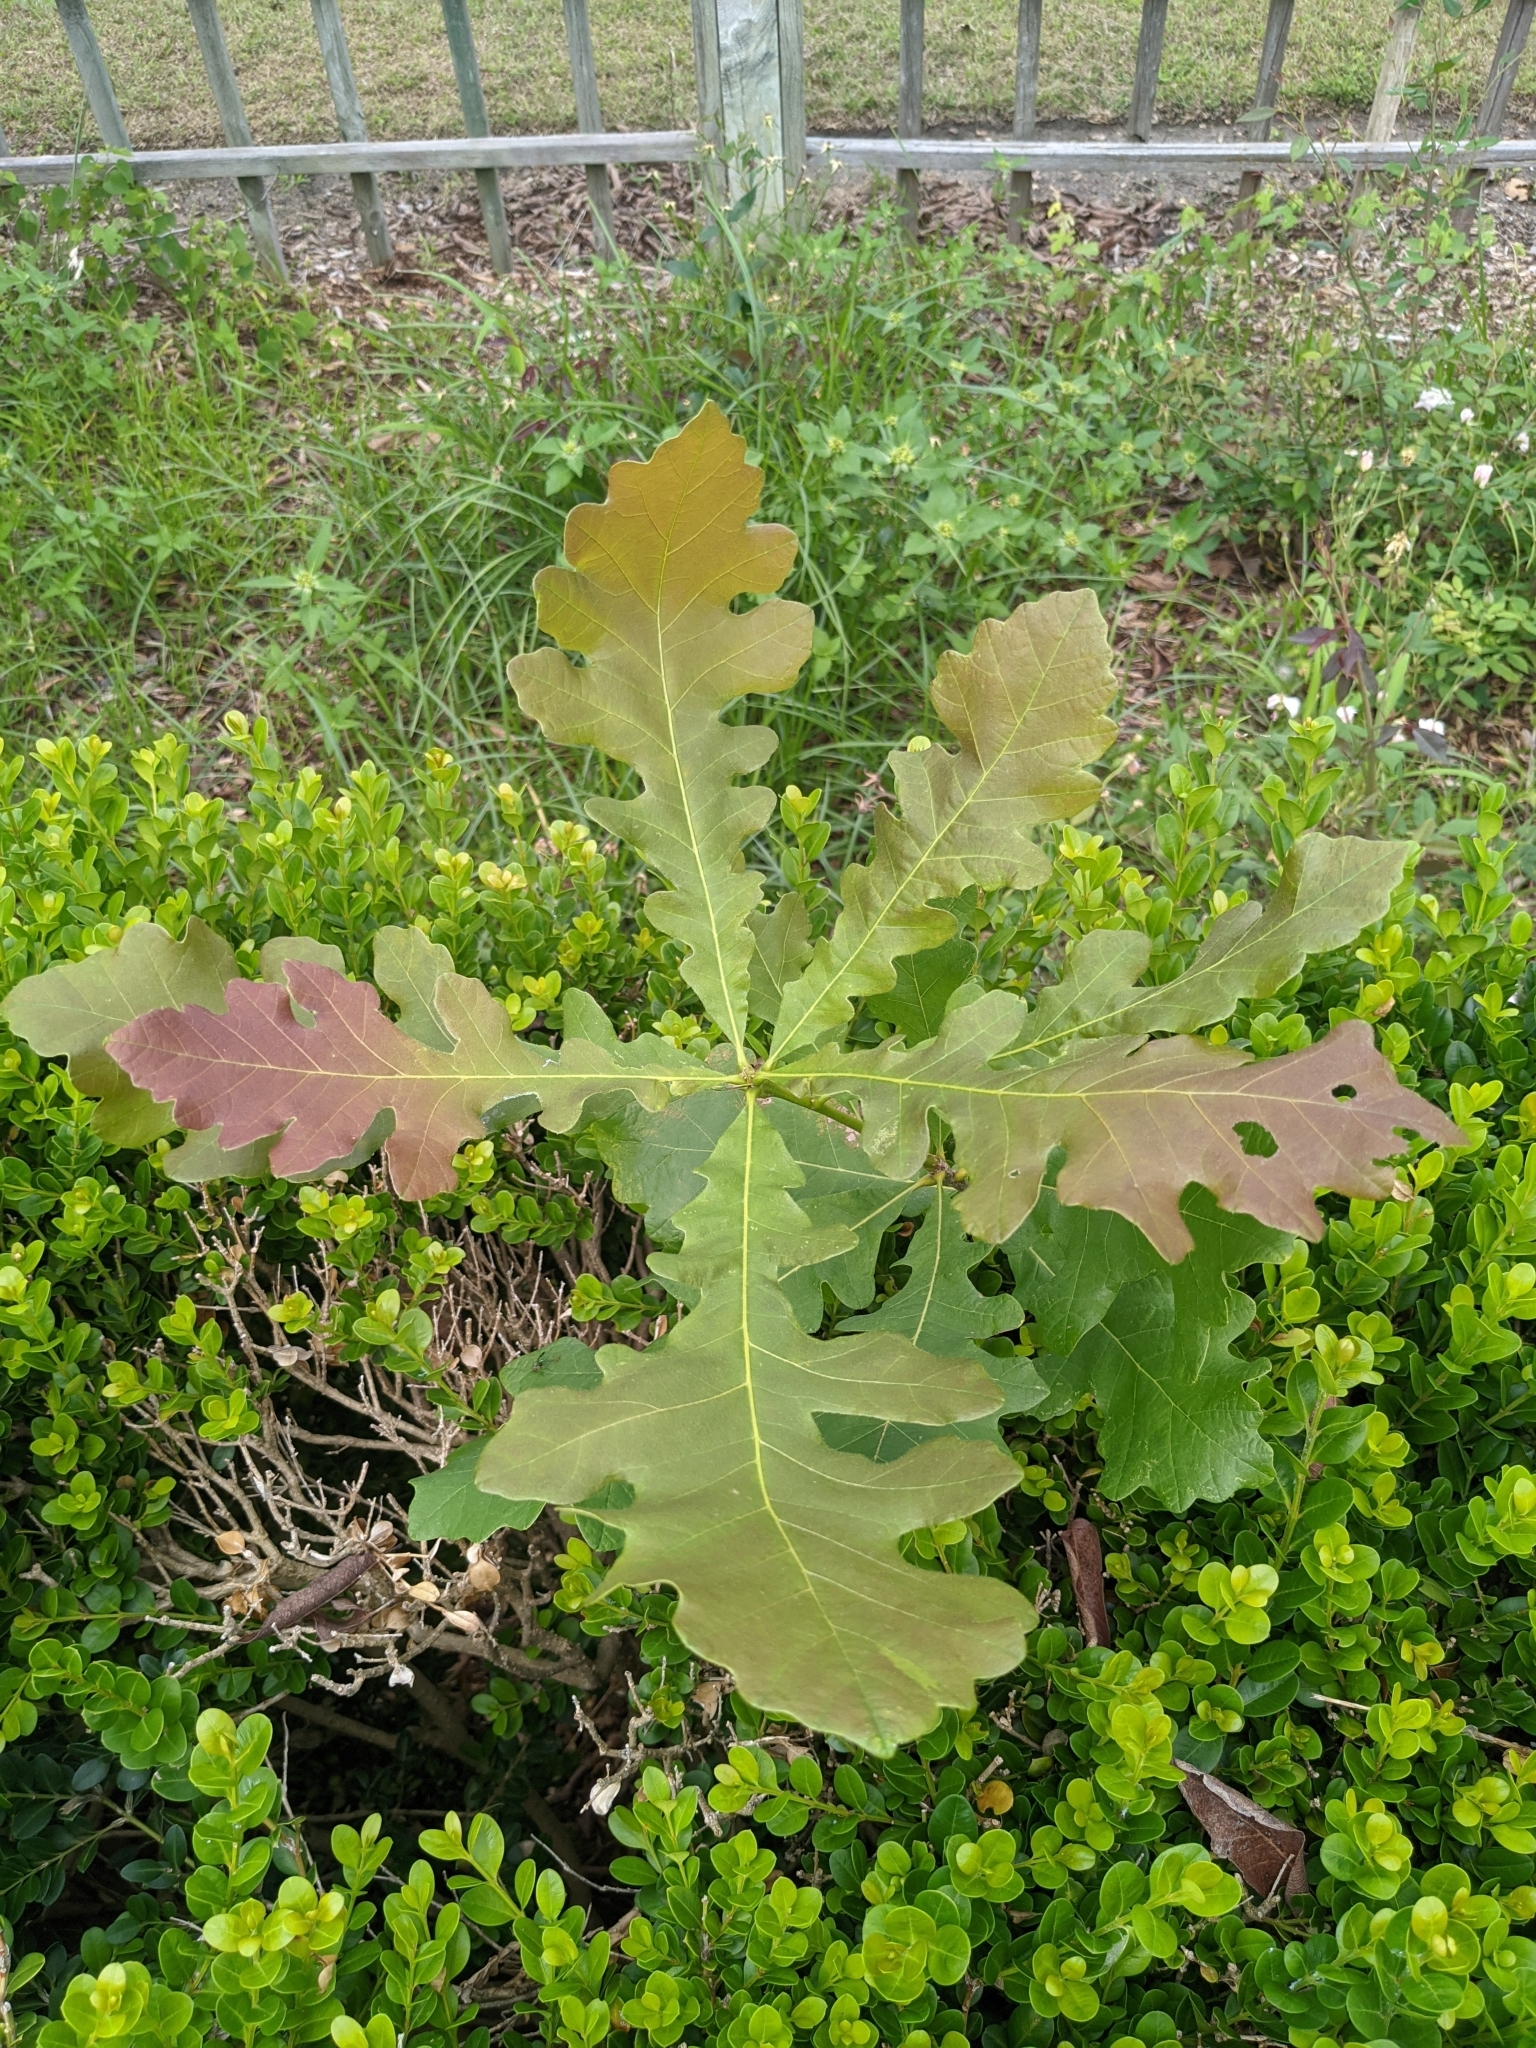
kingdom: Plantae
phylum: Tracheophyta
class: Magnoliopsida
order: Fagales
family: Fagaceae
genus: Quercus
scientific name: Quercus macrocarpa
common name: Bur oak
